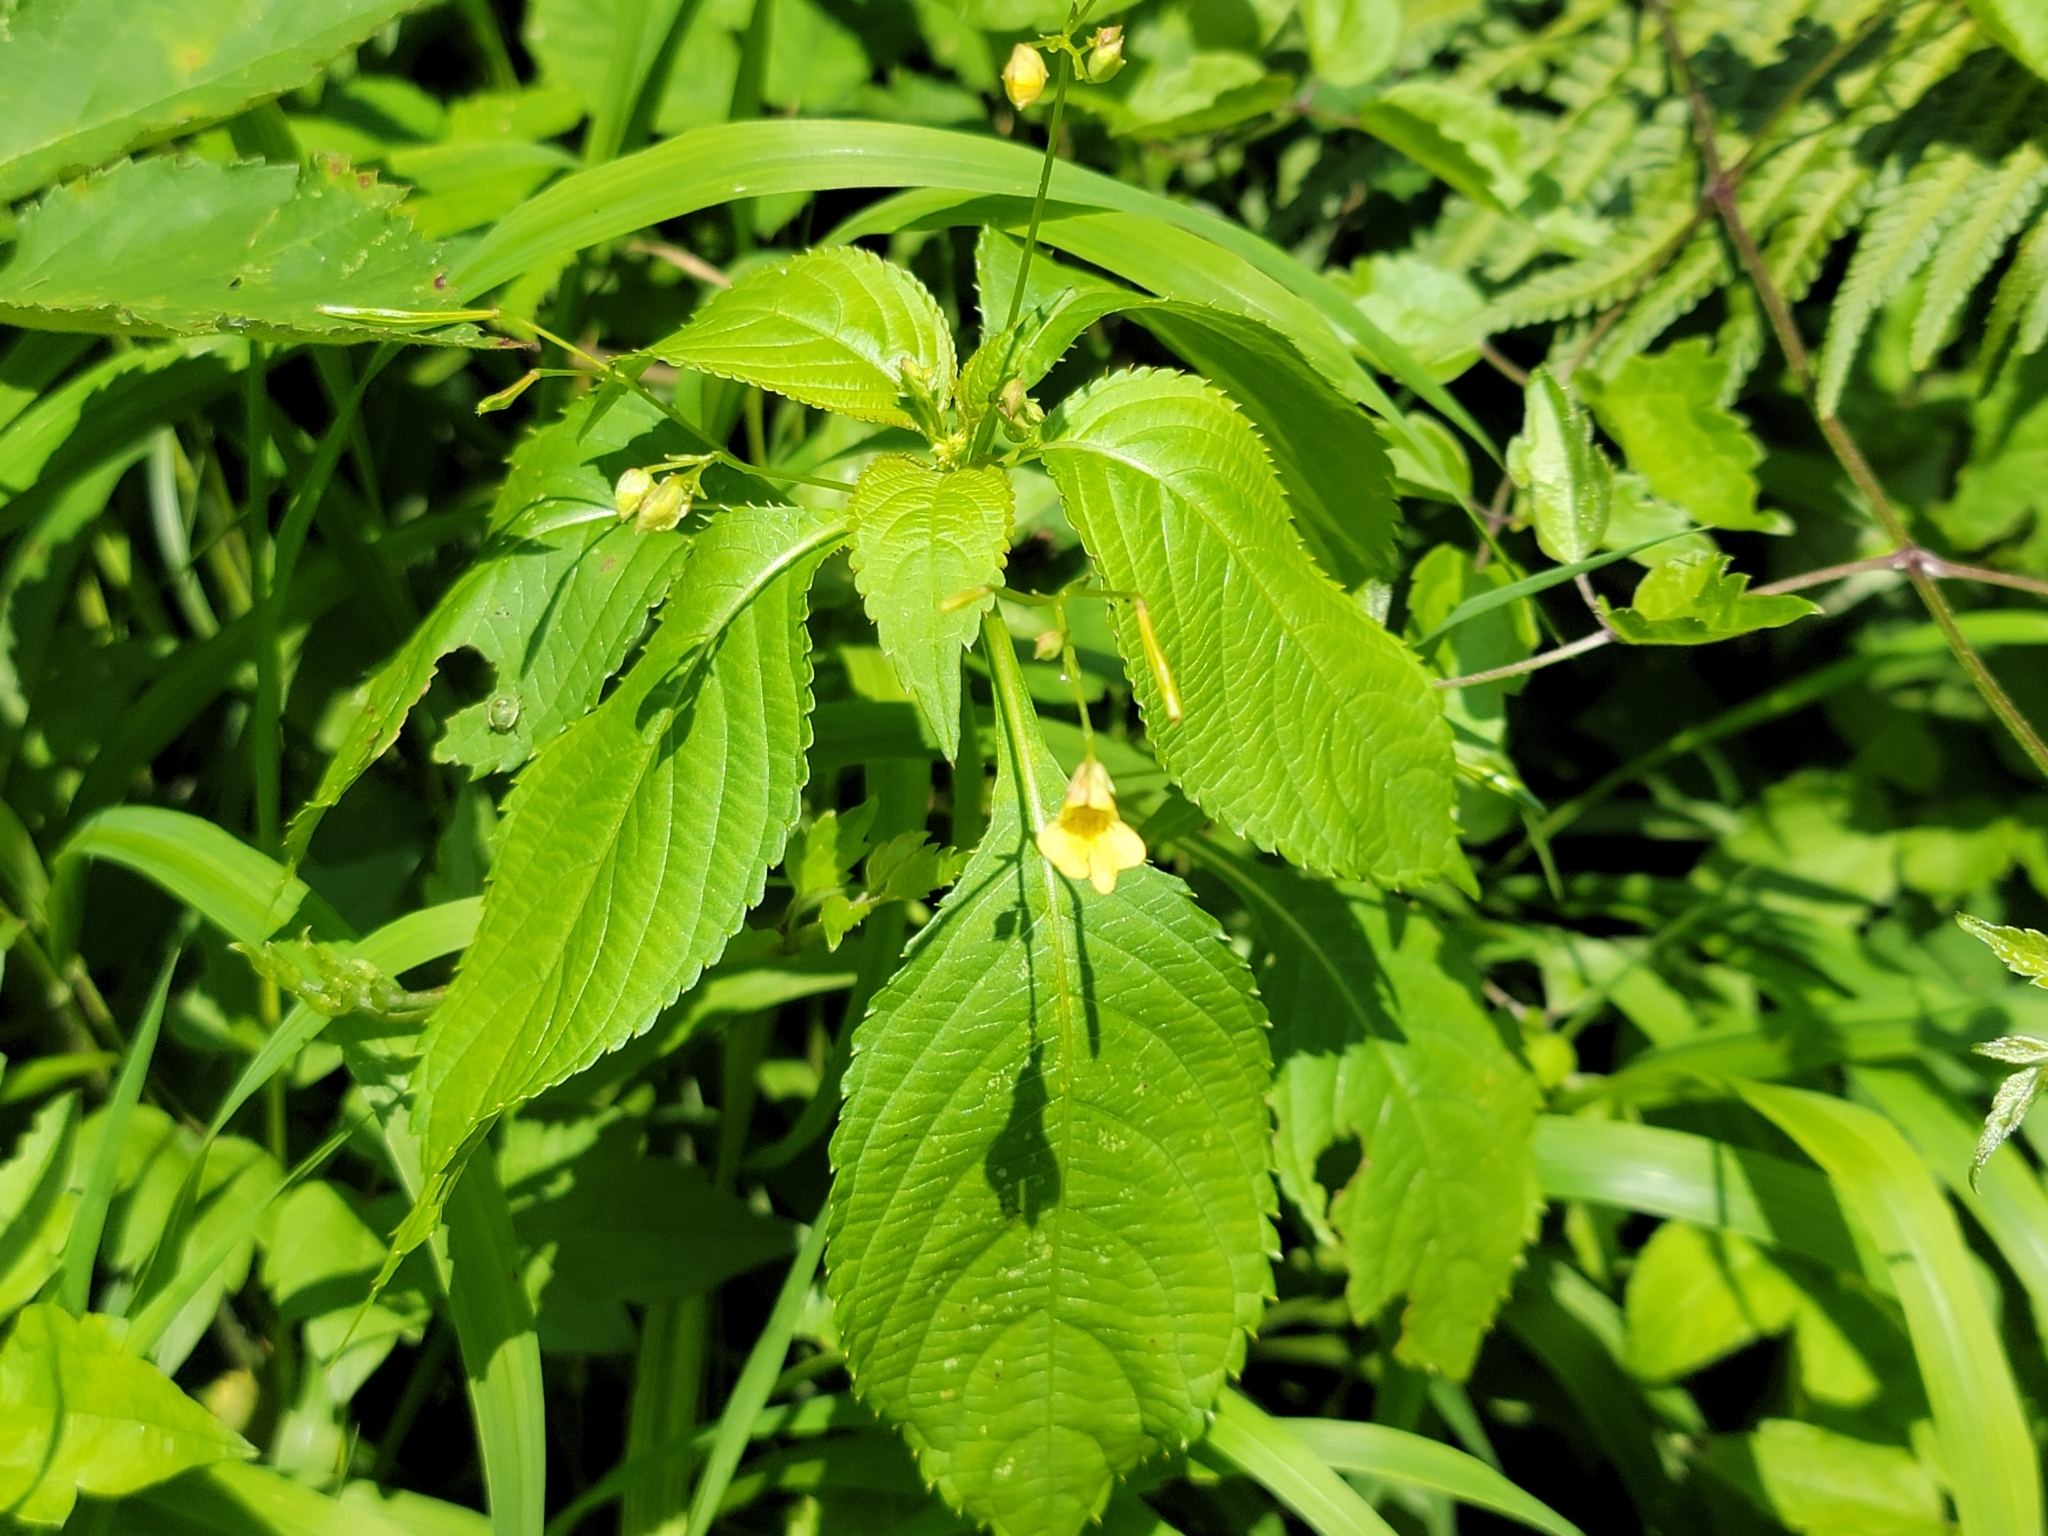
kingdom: Plantae
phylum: Tracheophyta
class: Magnoliopsida
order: Ericales
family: Balsaminaceae
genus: Impatiens
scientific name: Impatiens parviflora
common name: Small balsam
